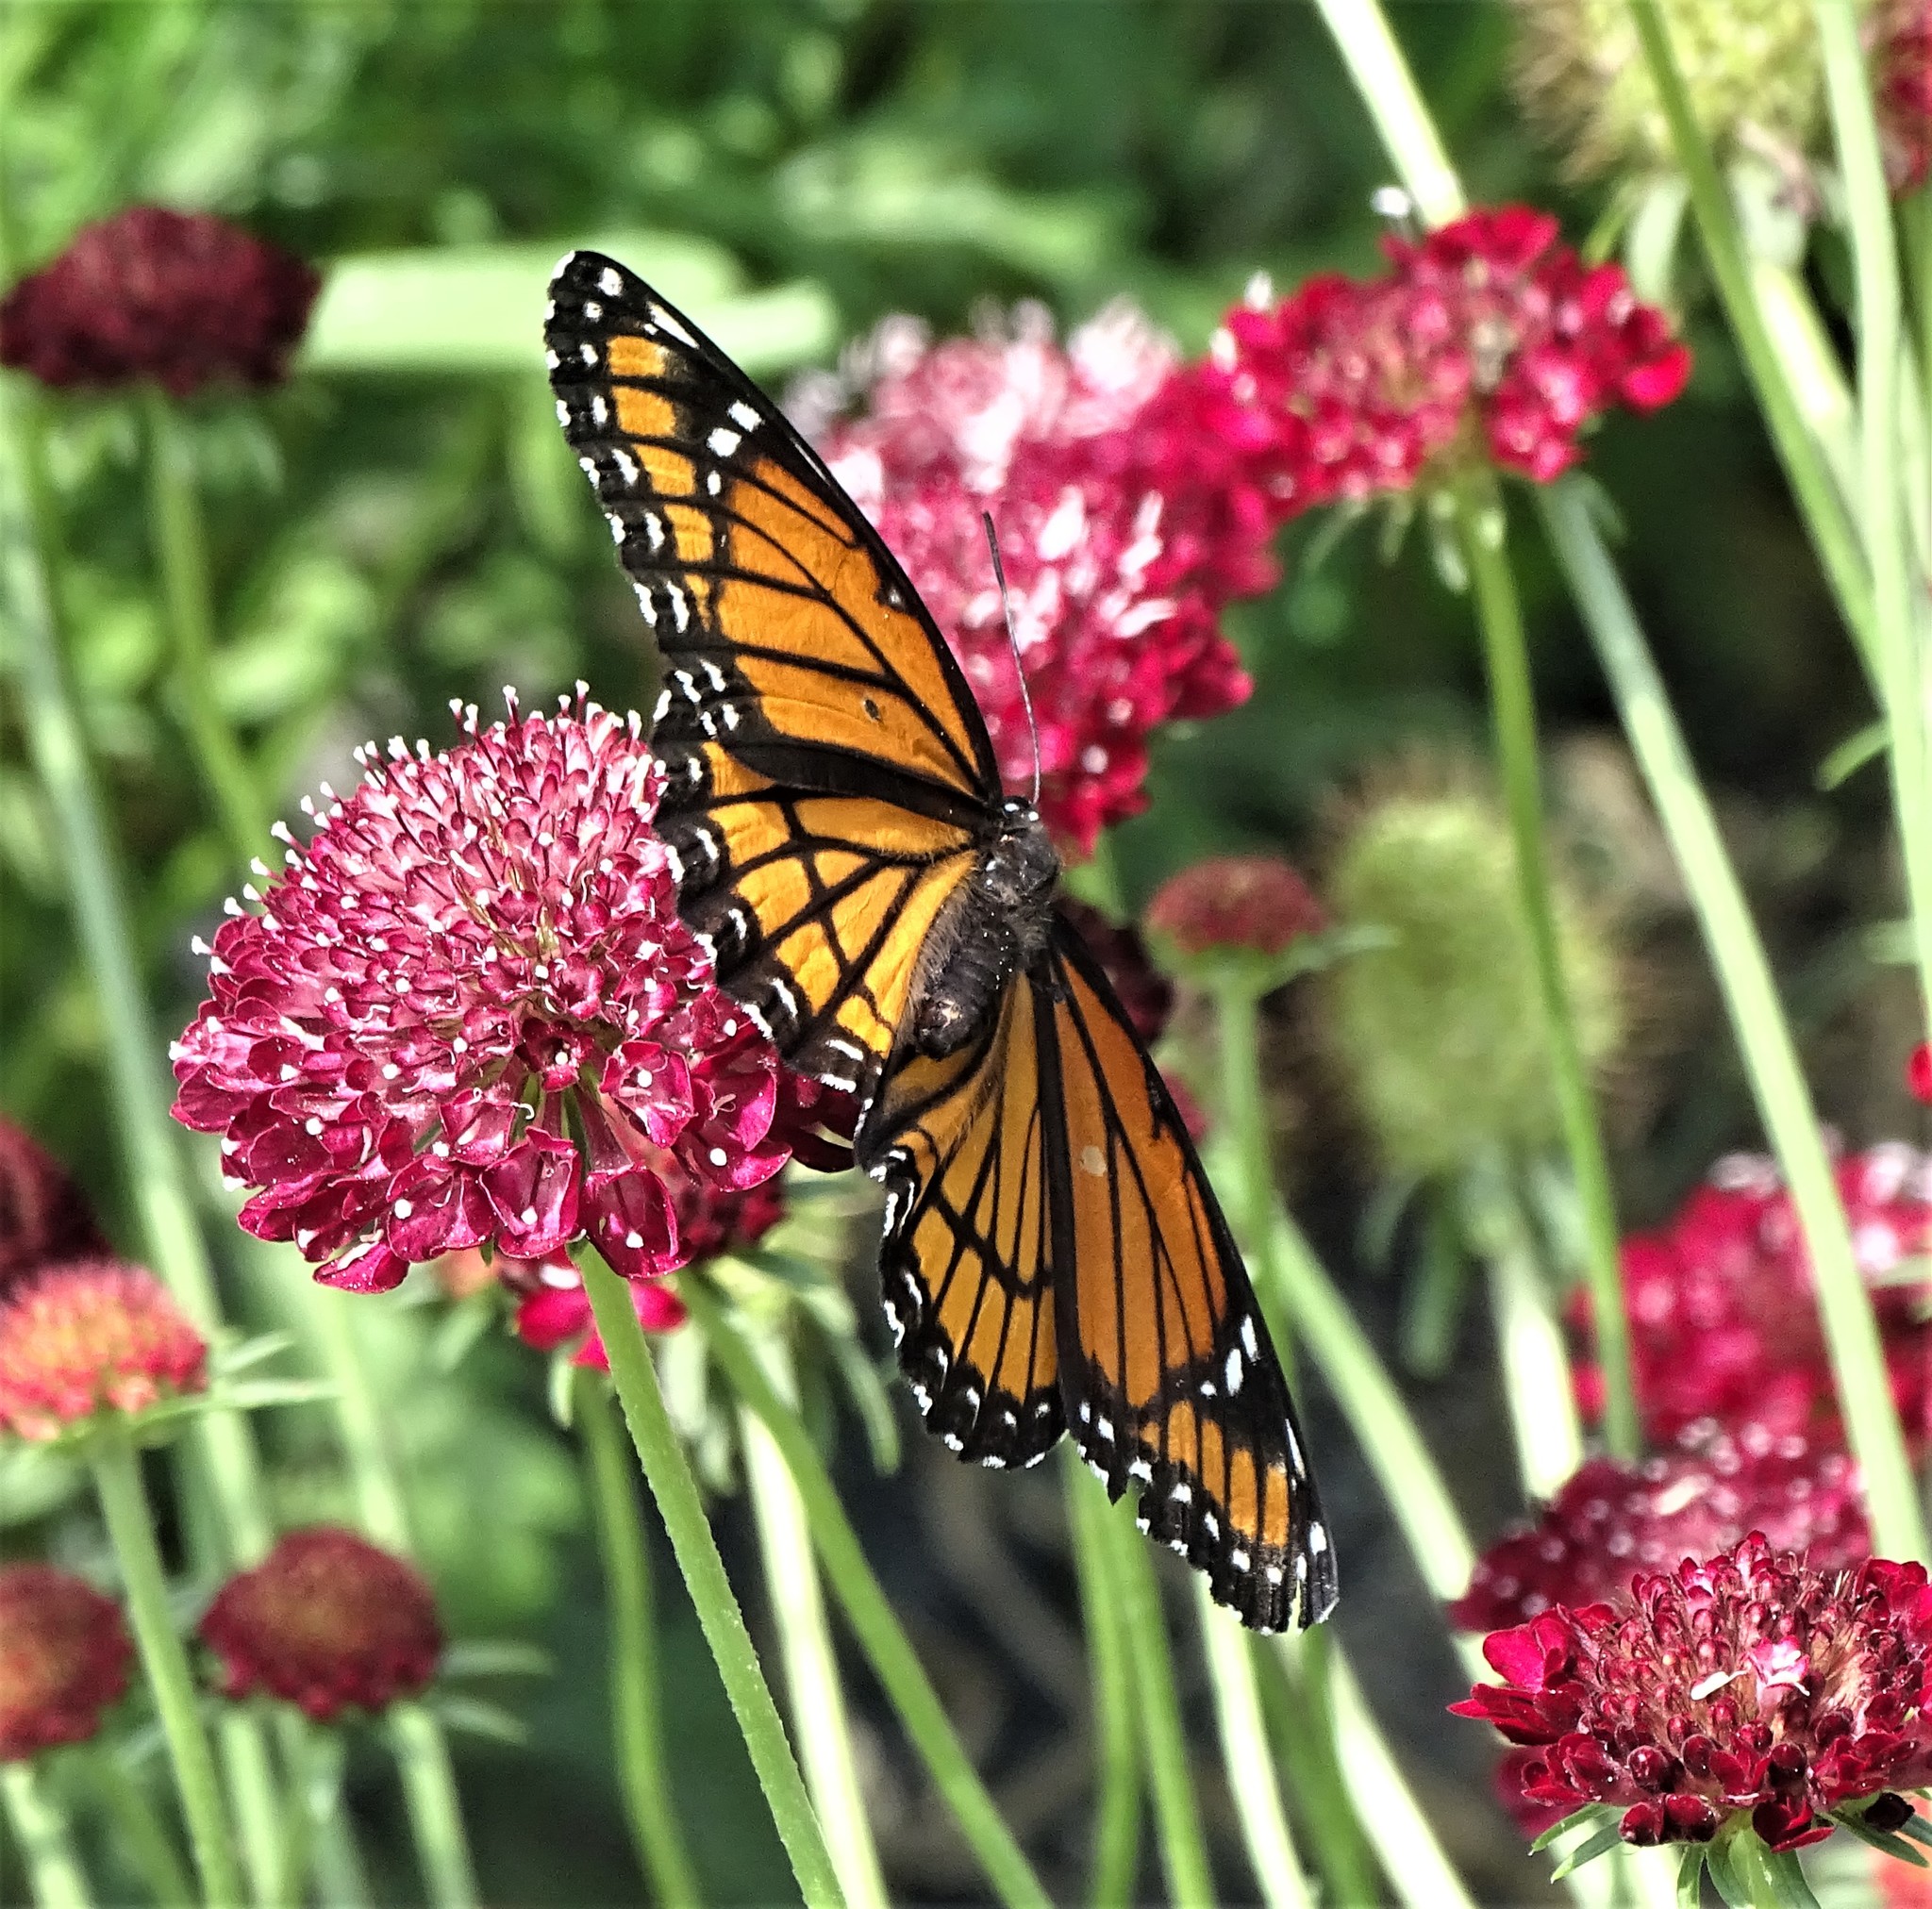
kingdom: Animalia
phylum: Arthropoda
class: Insecta
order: Lepidoptera
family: Nymphalidae
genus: Limenitis
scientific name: Limenitis archippus
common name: Viceroy
